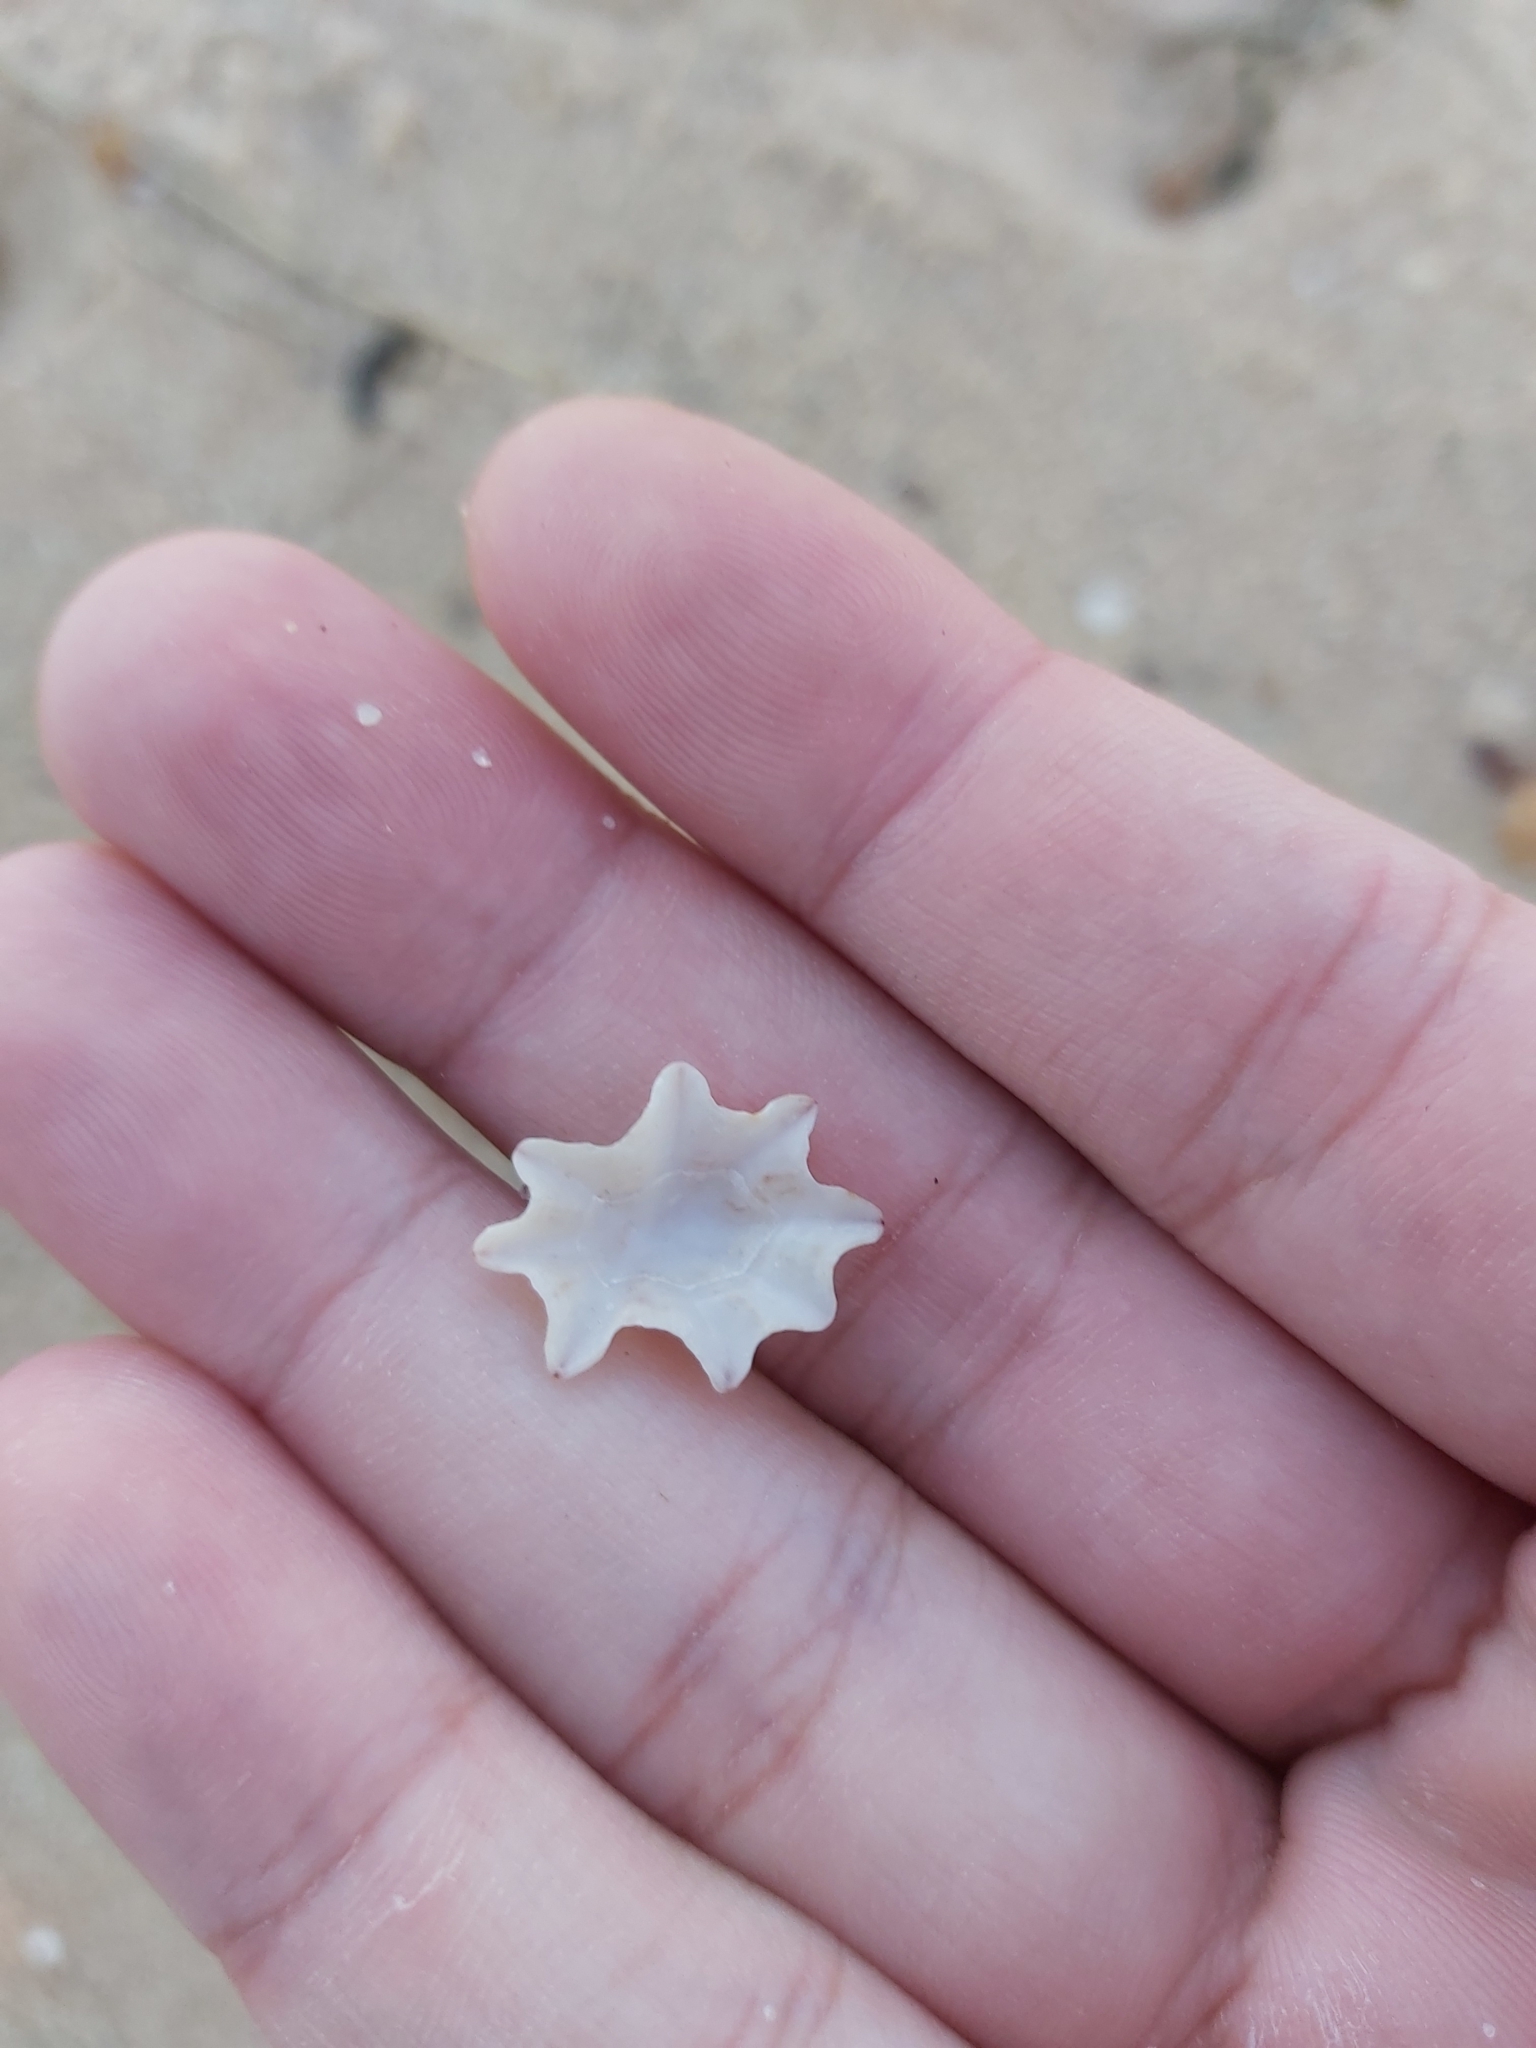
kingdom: Animalia
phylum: Mollusca
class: Gastropoda
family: Patellidae
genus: Scutellastra
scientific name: Scutellastra chapmani
